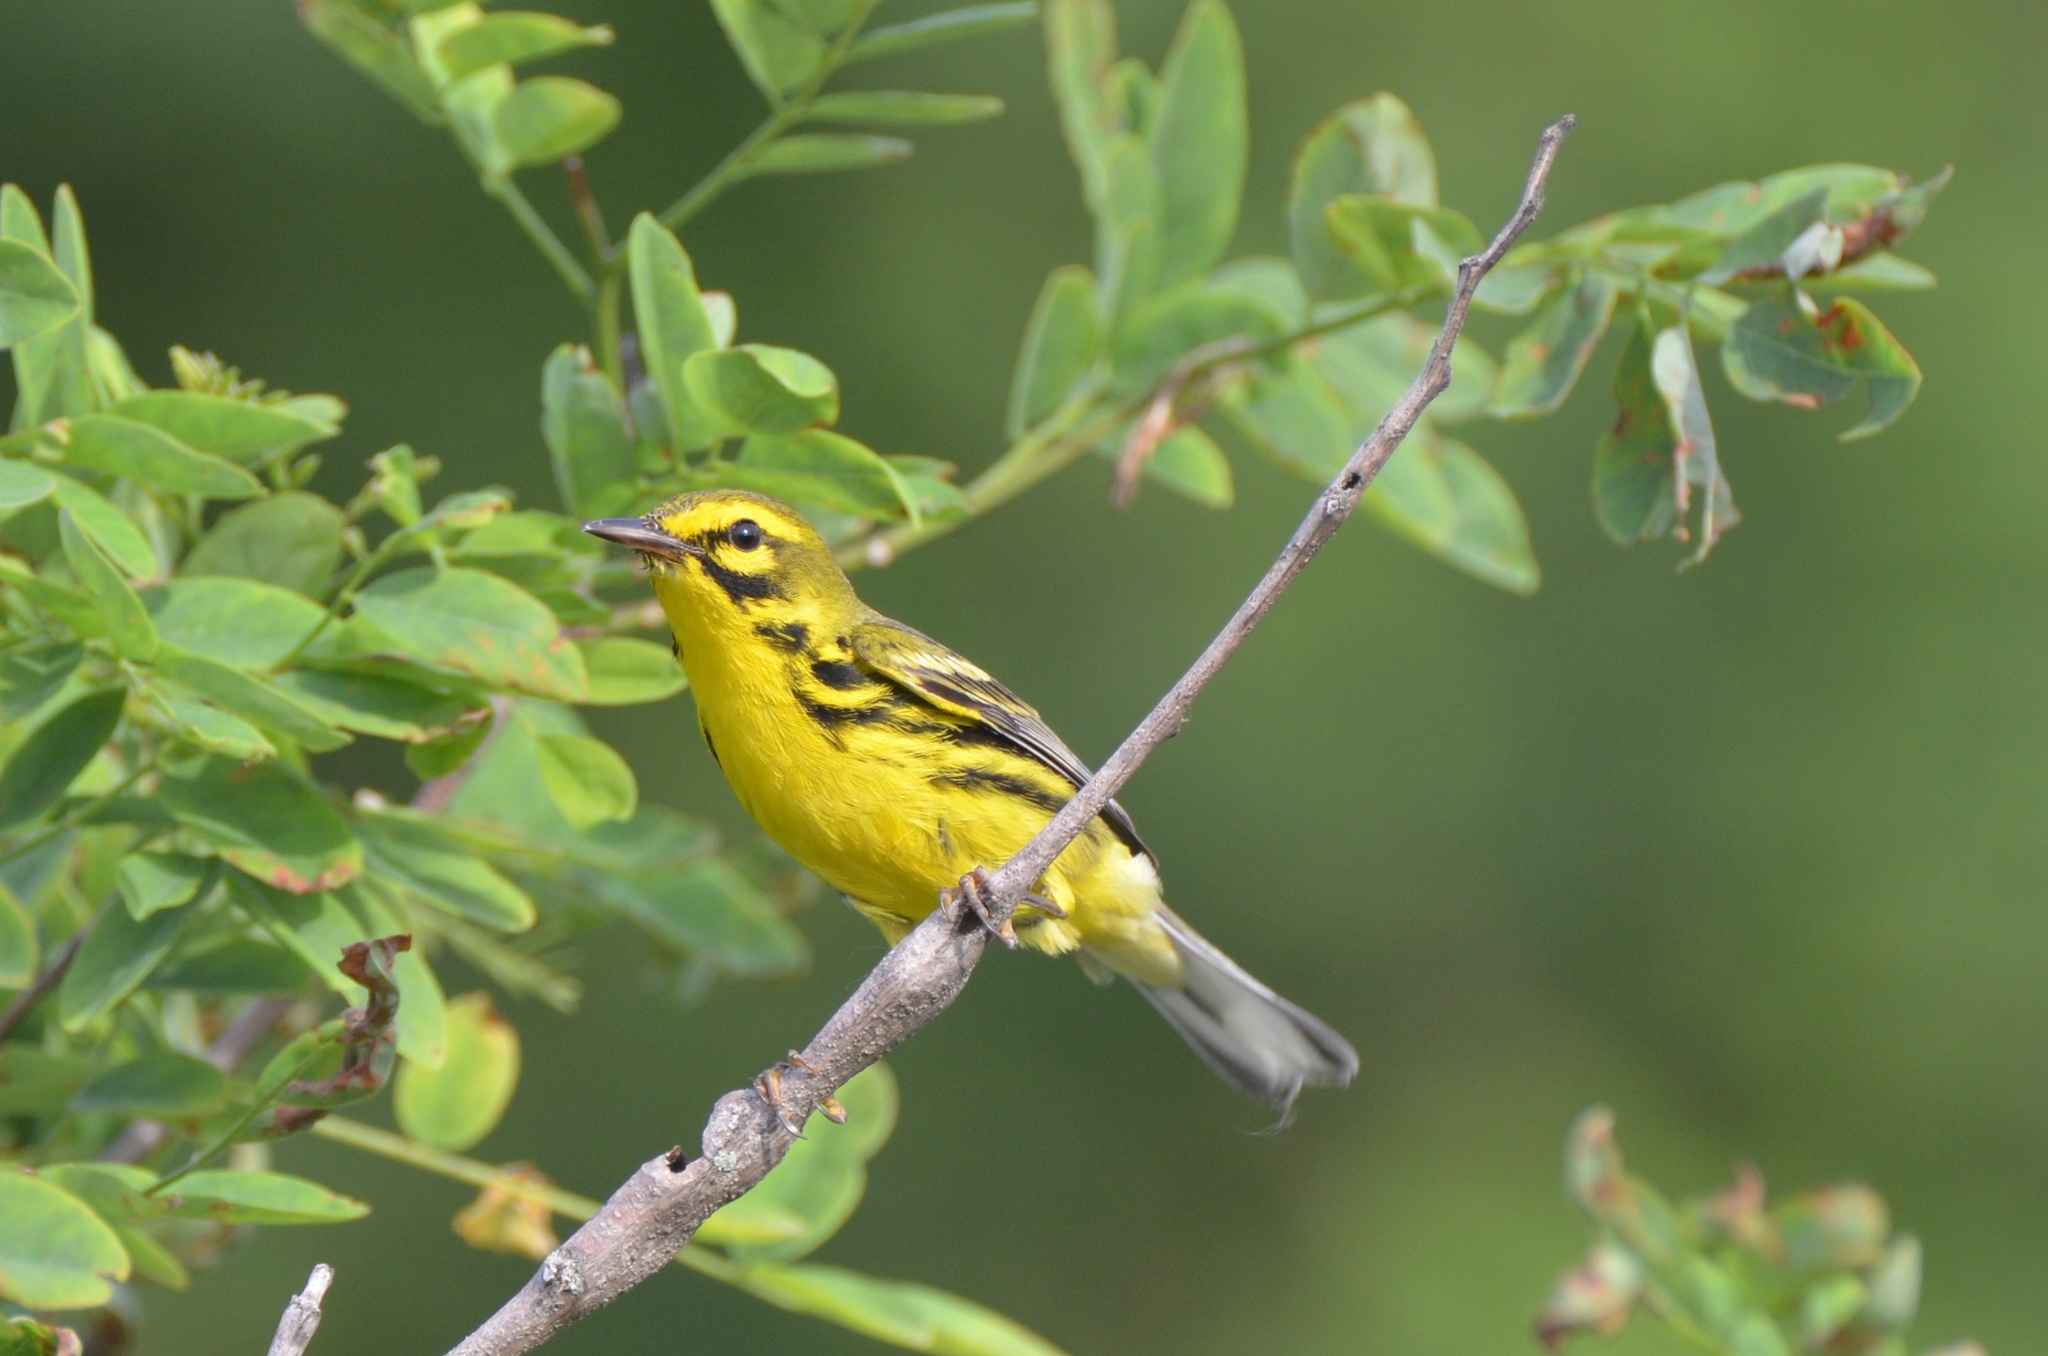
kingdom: Animalia
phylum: Chordata
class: Aves
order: Passeriformes
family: Parulidae
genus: Setophaga
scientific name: Setophaga discolor
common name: Prairie warbler
